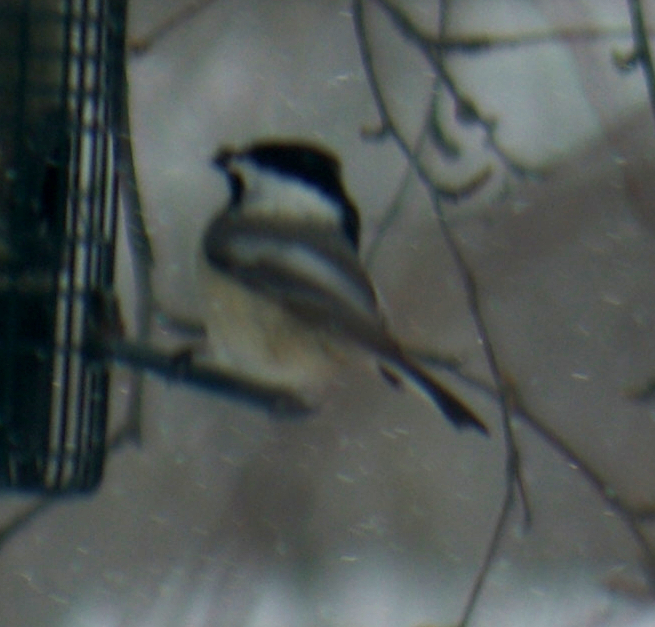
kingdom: Animalia
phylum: Chordata
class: Aves
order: Passeriformes
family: Paridae
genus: Poecile
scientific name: Poecile atricapillus
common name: Black-capped chickadee
